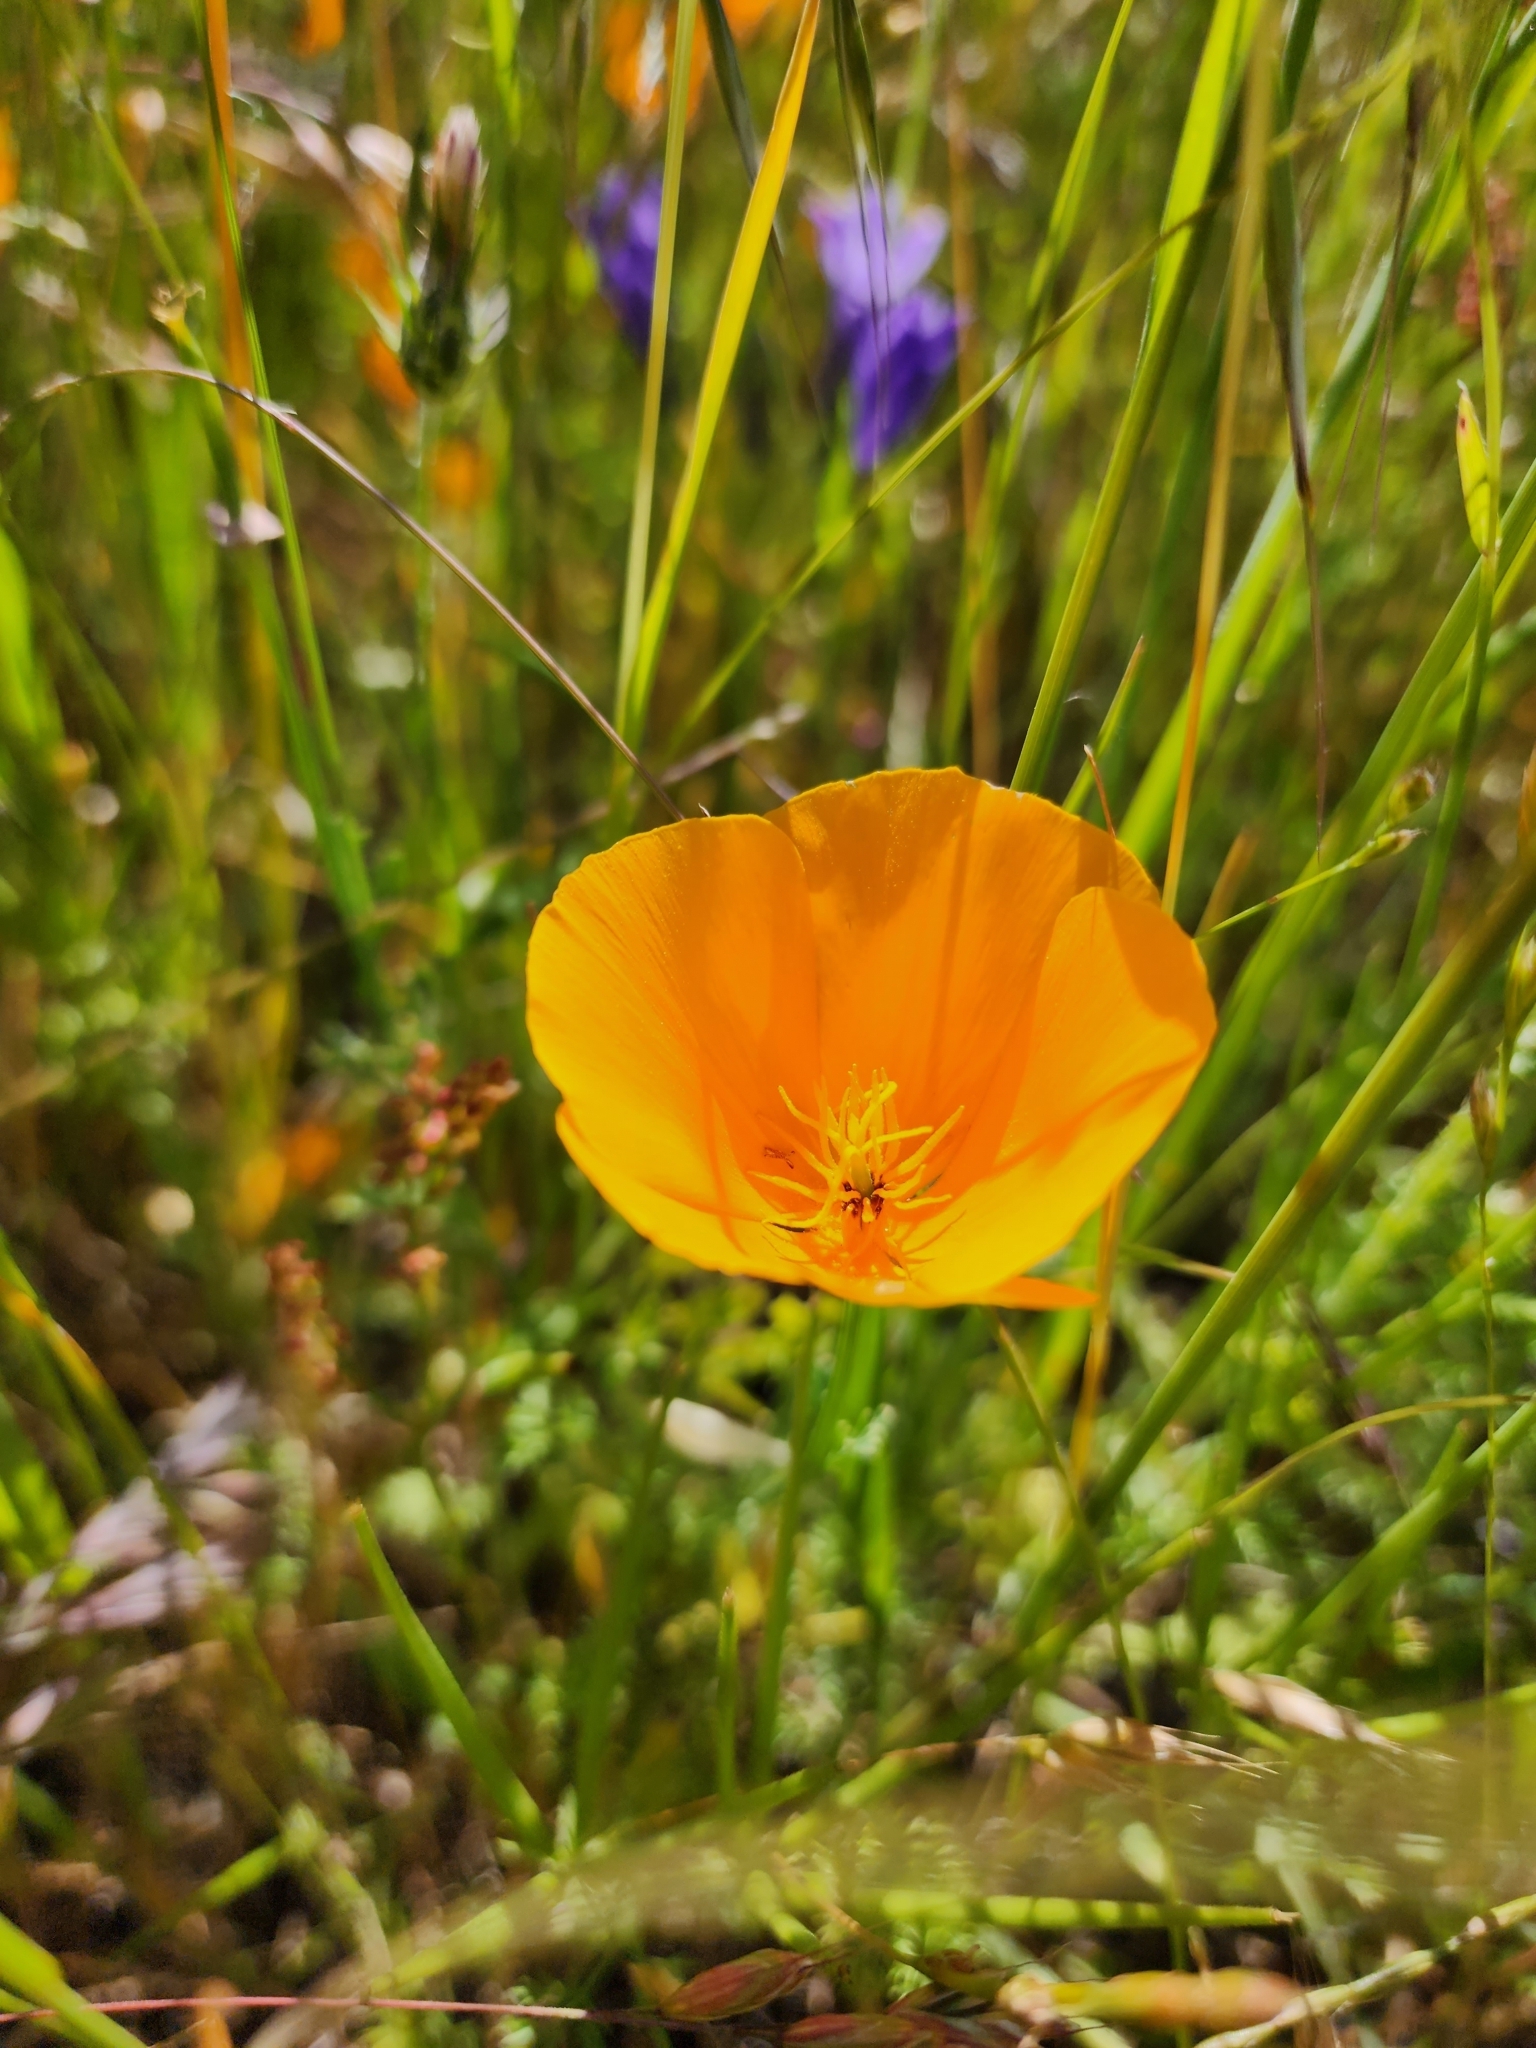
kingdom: Plantae
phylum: Tracheophyta
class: Magnoliopsida
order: Ranunculales
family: Papaveraceae
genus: Eschscholzia
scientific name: Eschscholzia californica
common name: California poppy
